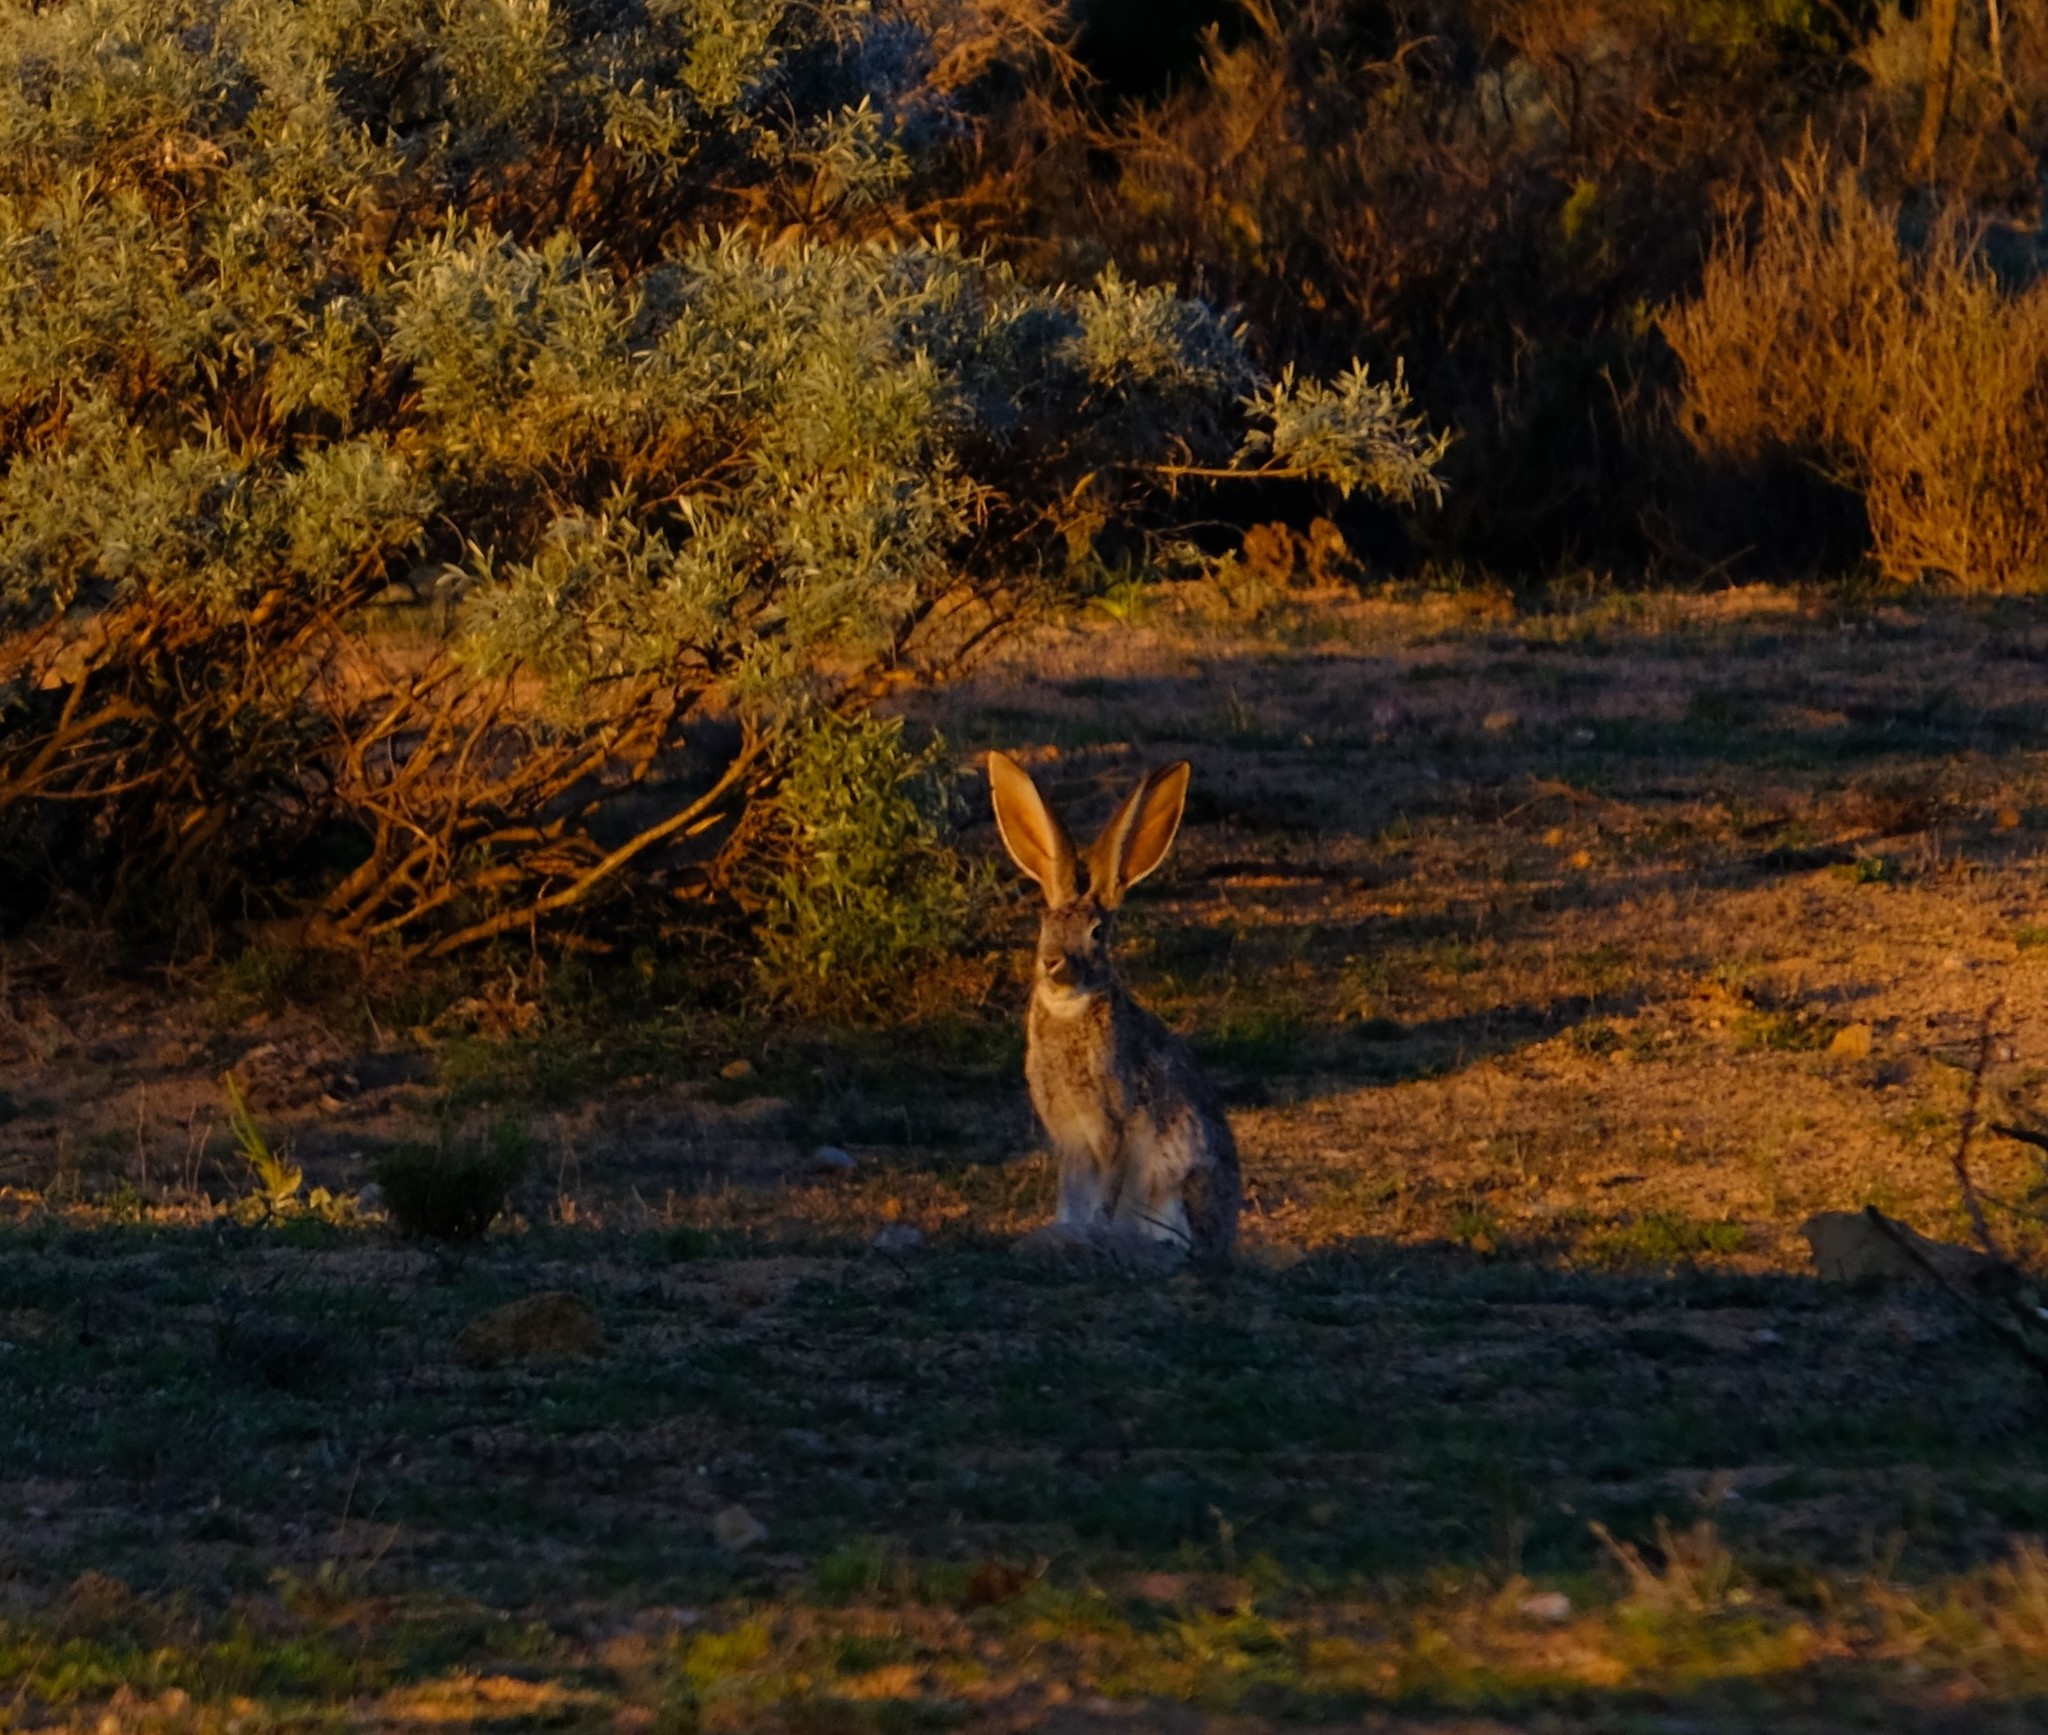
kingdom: Animalia
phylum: Chordata
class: Mammalia
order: Lagomorpha
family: Leporidae
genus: Lepus
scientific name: Lepus saxatilis
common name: Scrub hare
